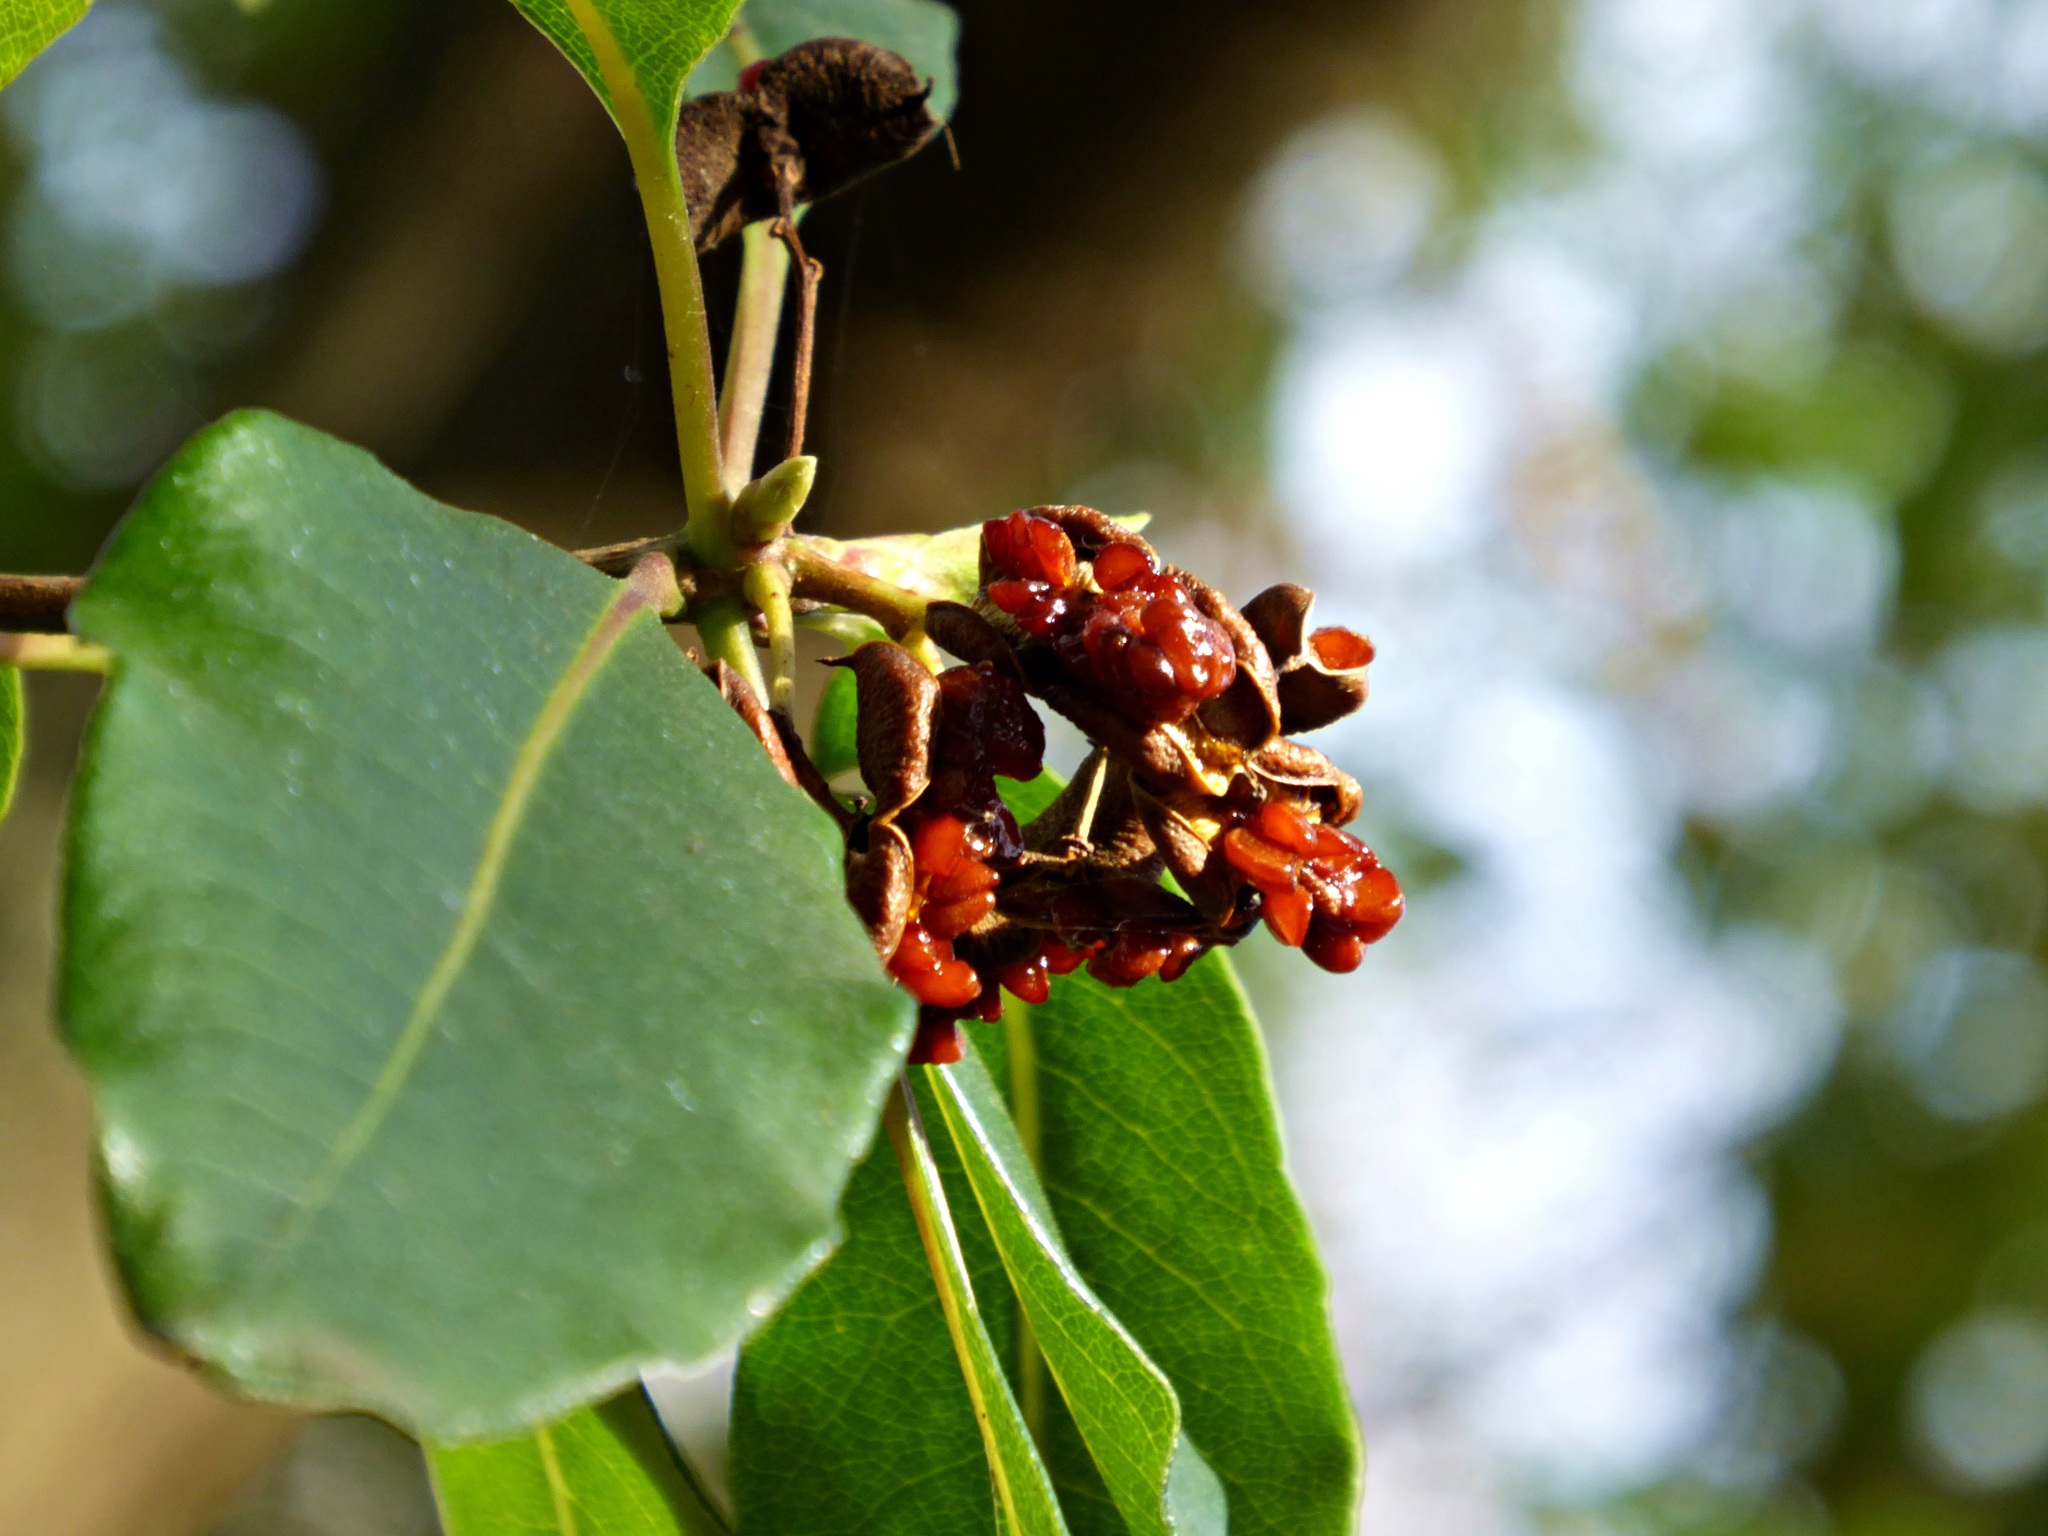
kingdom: Plantae
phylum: Tracheophyta
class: Magnoliopsida
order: Apiales
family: Pittosporaceae
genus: Pittosporum
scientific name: Pittosporum undulatum
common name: Australian cheesewood
